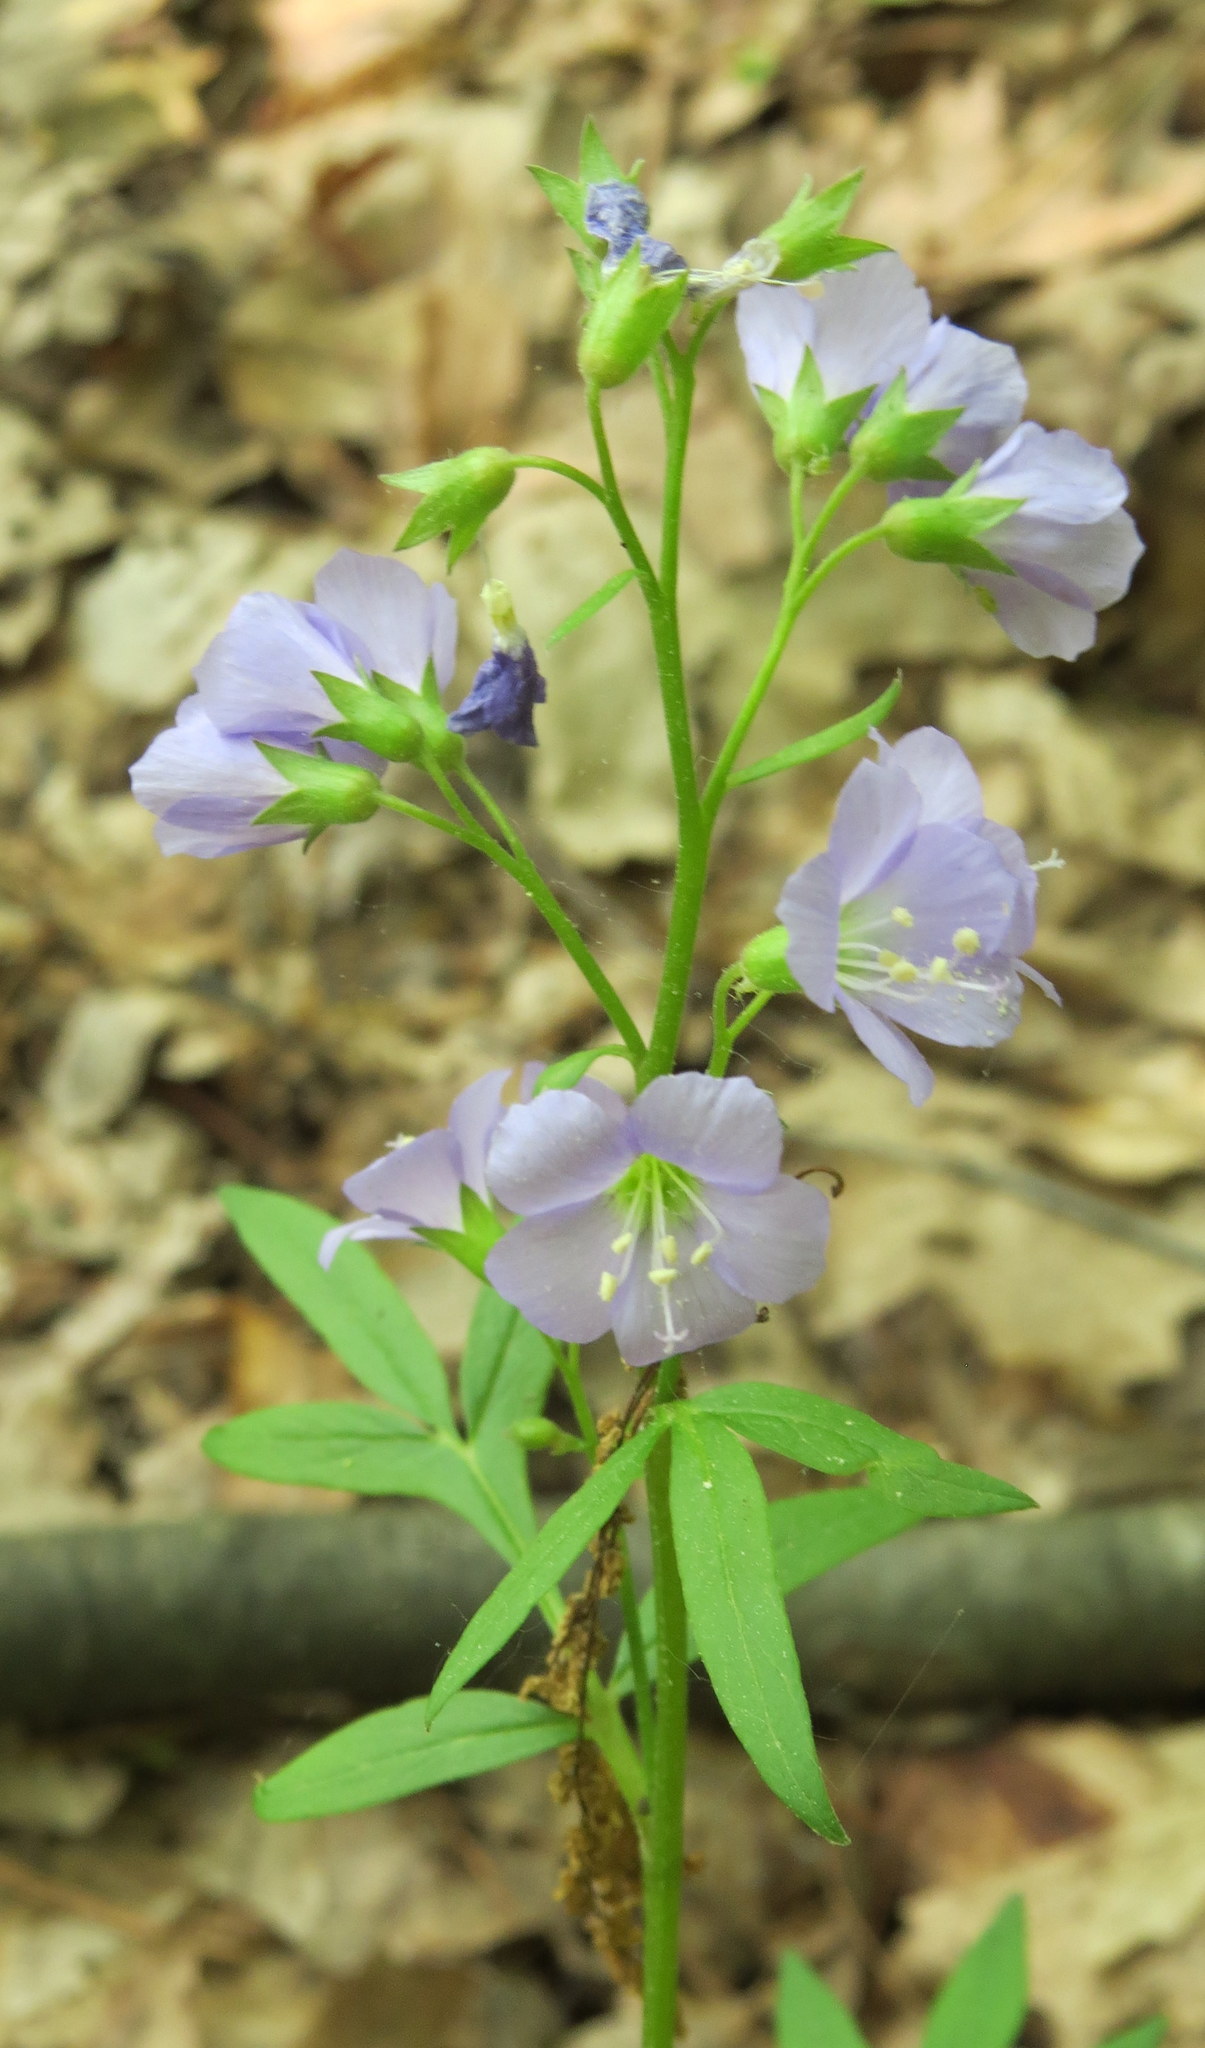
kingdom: Plantae
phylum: Tracheophyta
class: Magnoliopsida
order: Ericales
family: Polemoniaceae
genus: Polemonium
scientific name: Polemonium reptans
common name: Creeping jacob's-ladder
